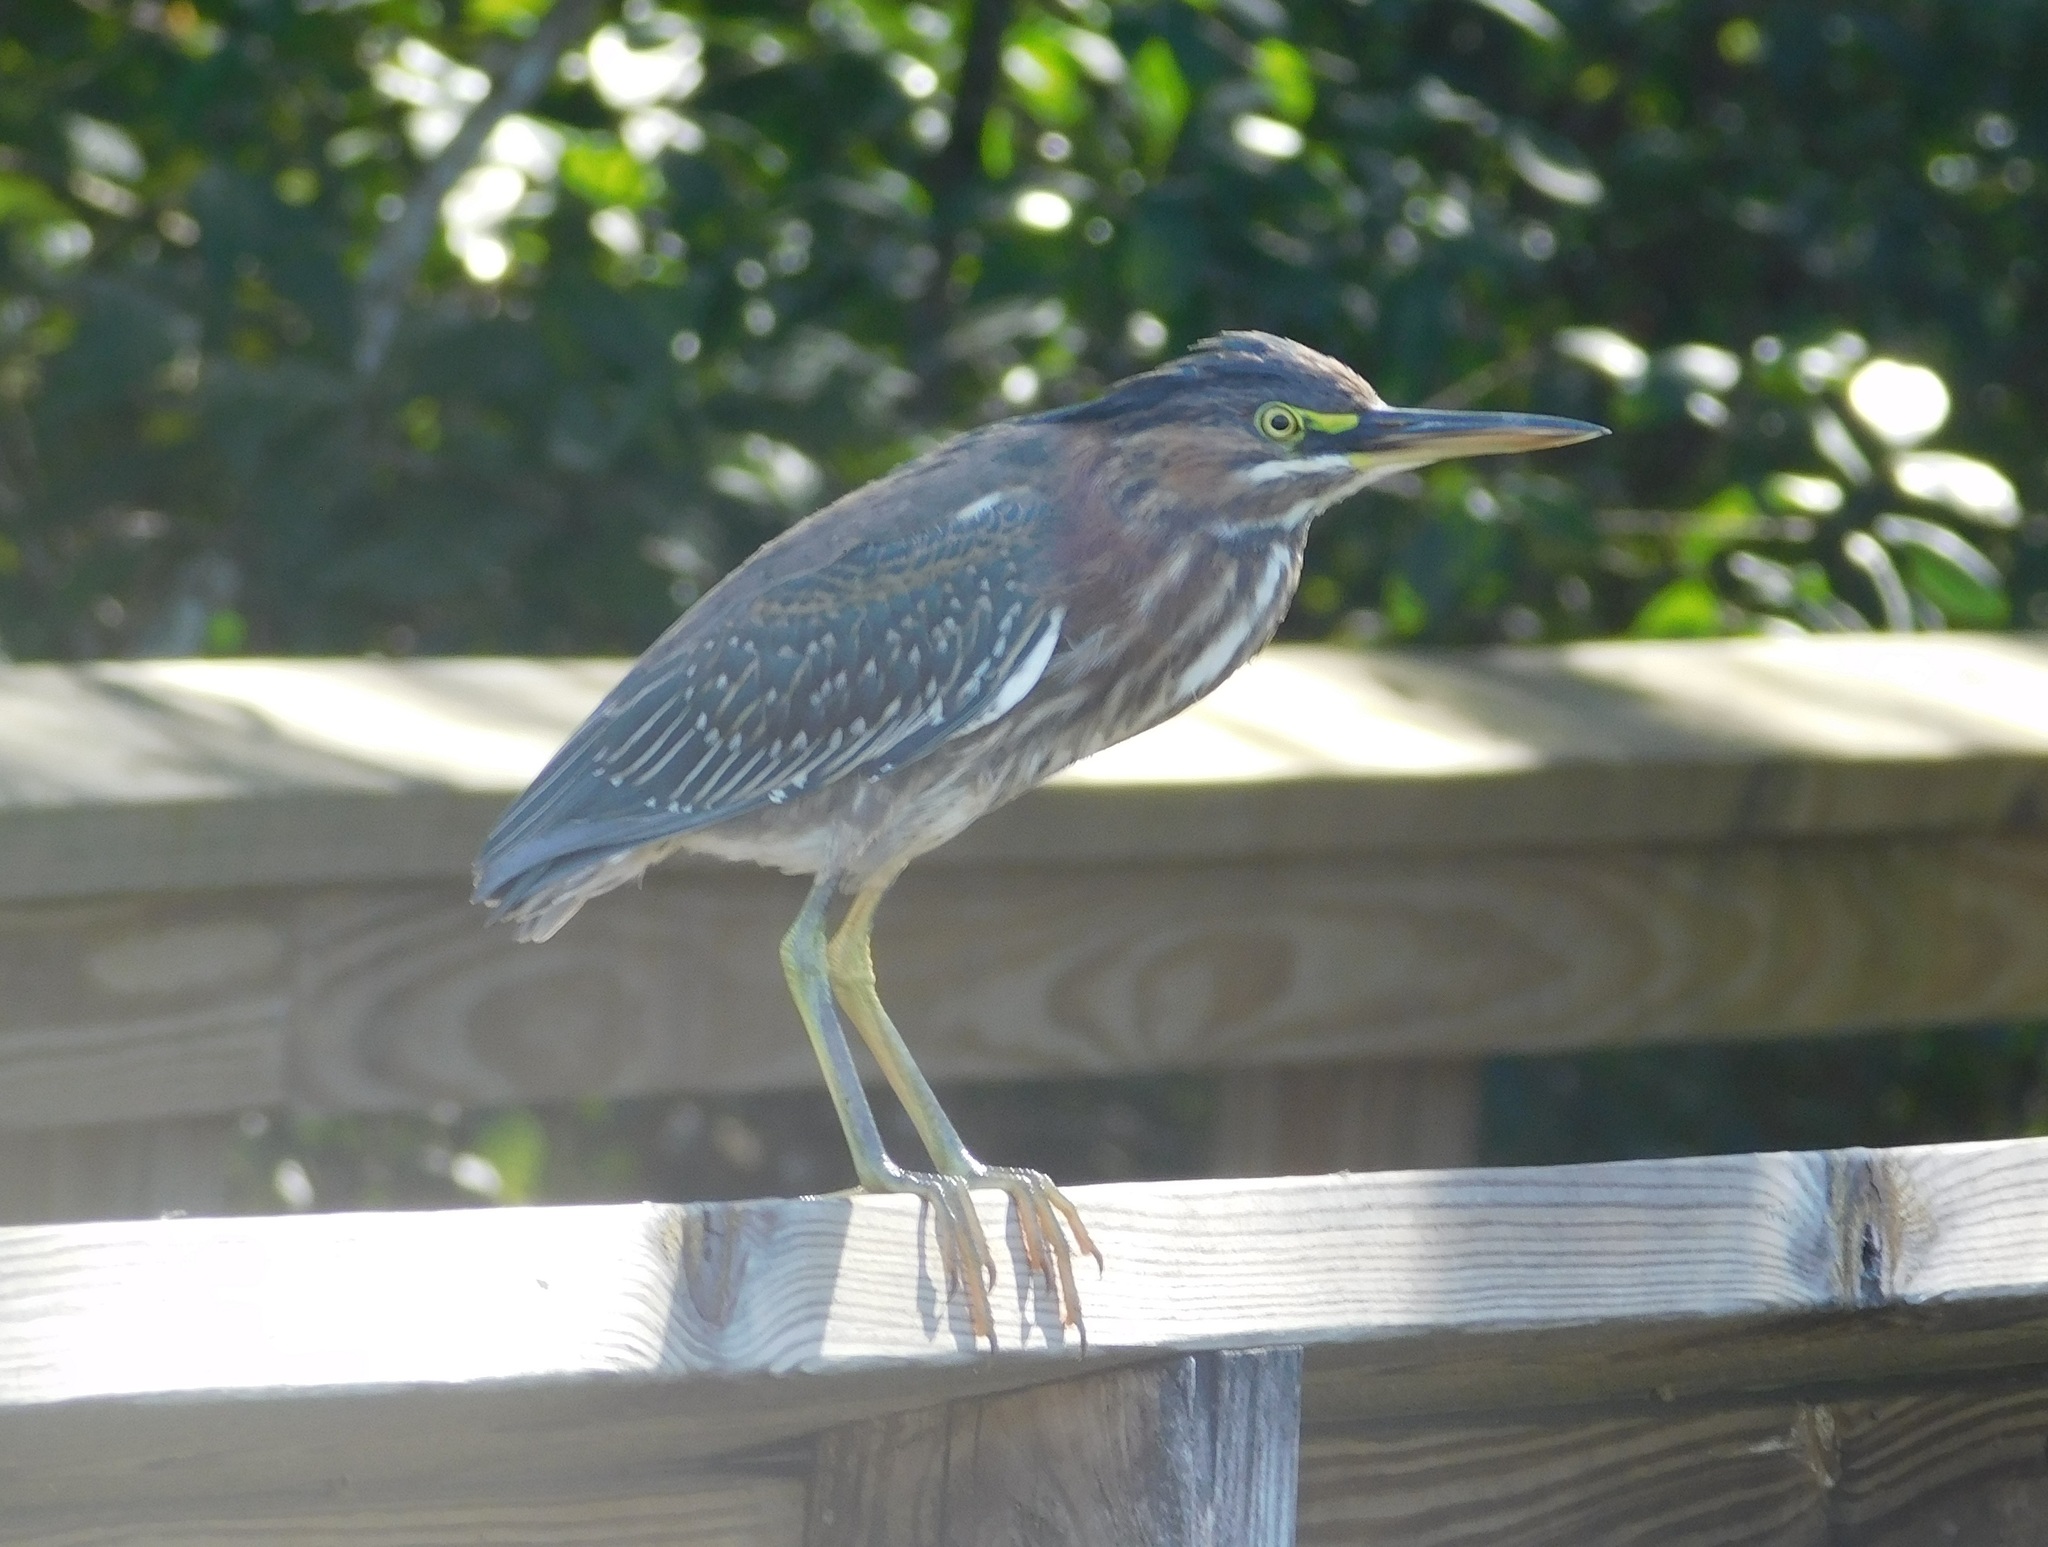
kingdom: Animalia
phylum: Chordata
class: Aves
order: Pelecaniformes
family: Ardeidae
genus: Butorides
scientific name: Butorides virescens
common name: Green heron
